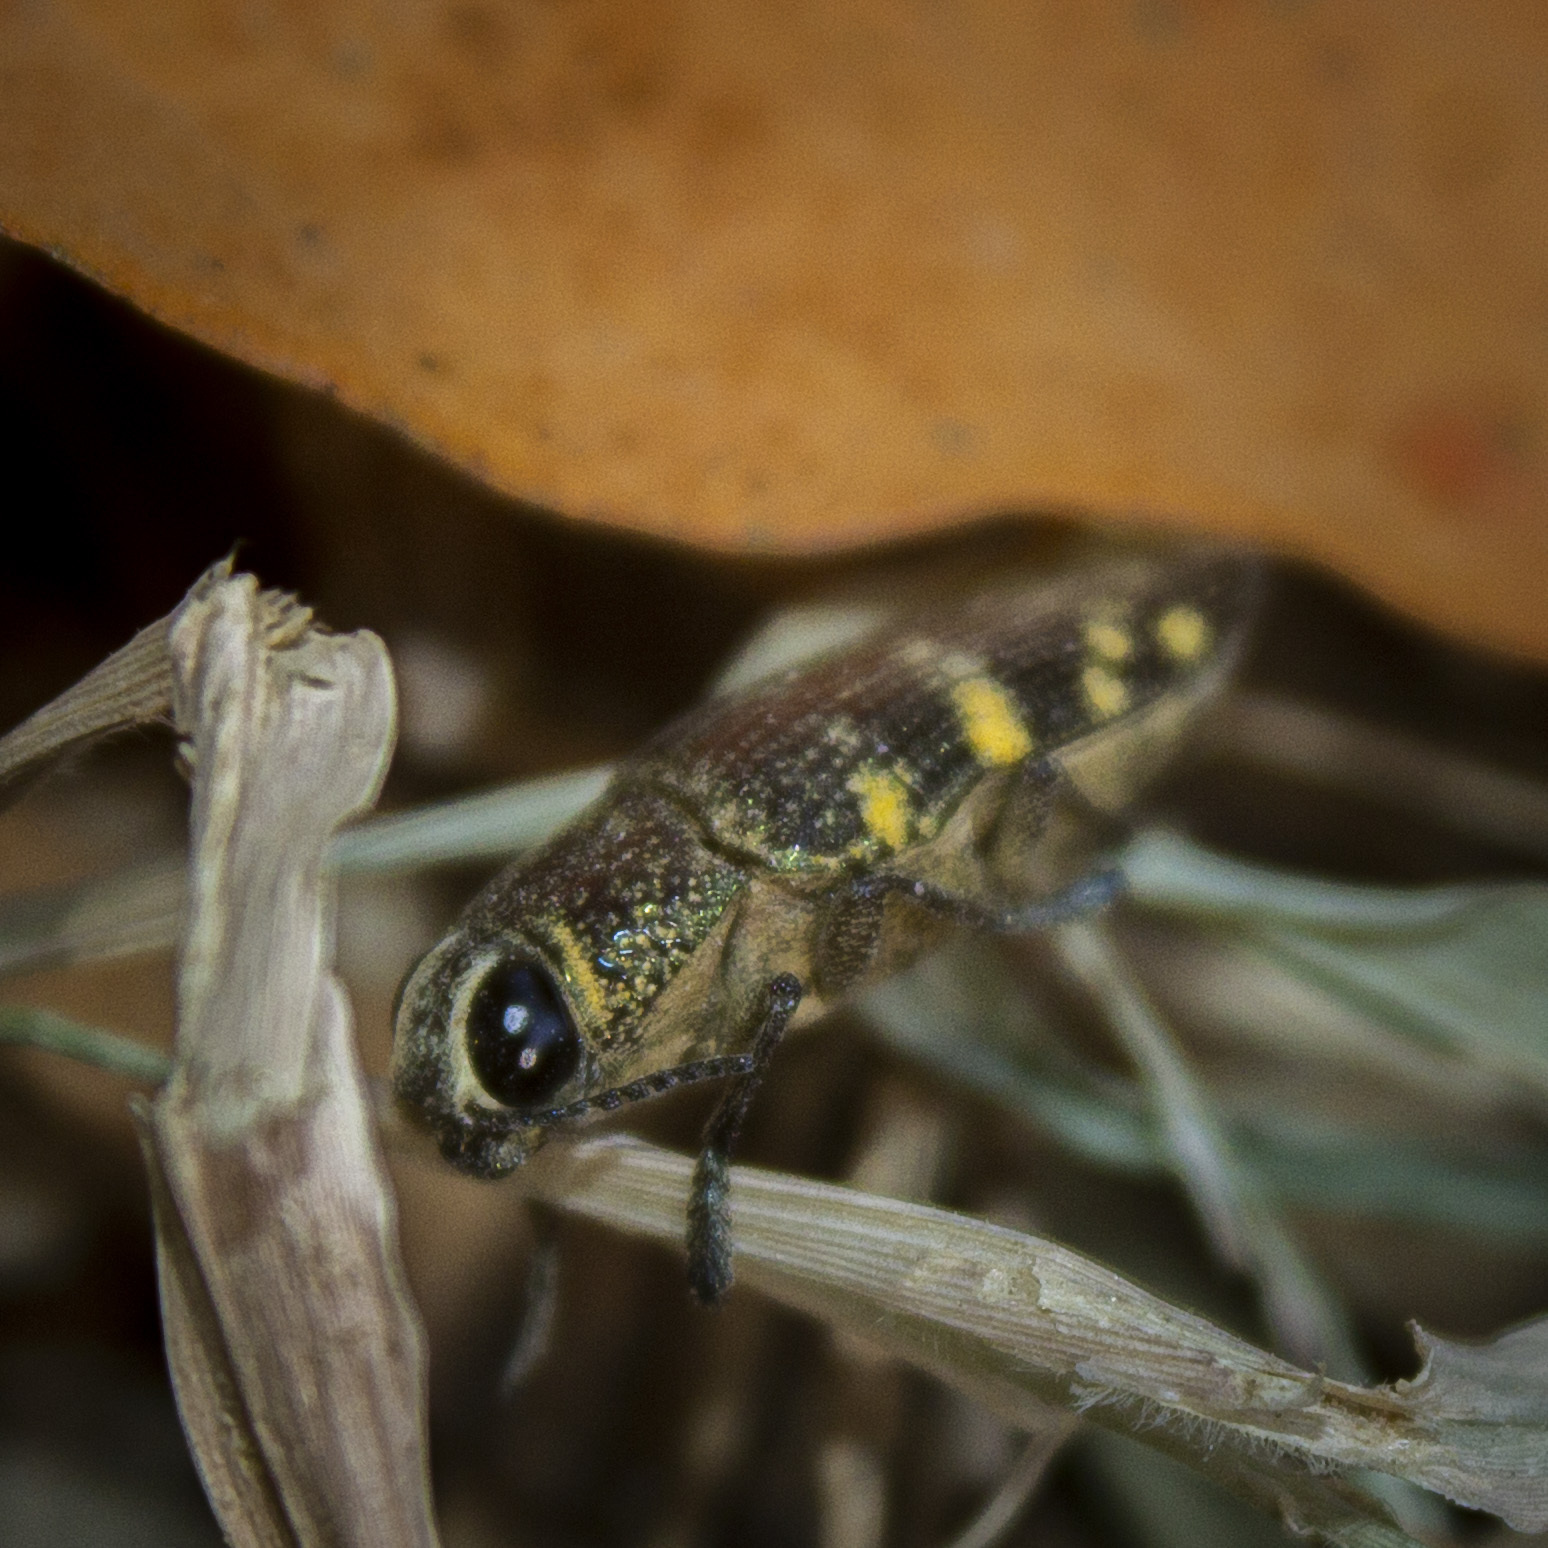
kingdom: Animalia
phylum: Arthropoda
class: Insecta
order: Coleoptera
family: Buprestidae
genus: Lampetis
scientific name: Lampetis hirtomaculata
